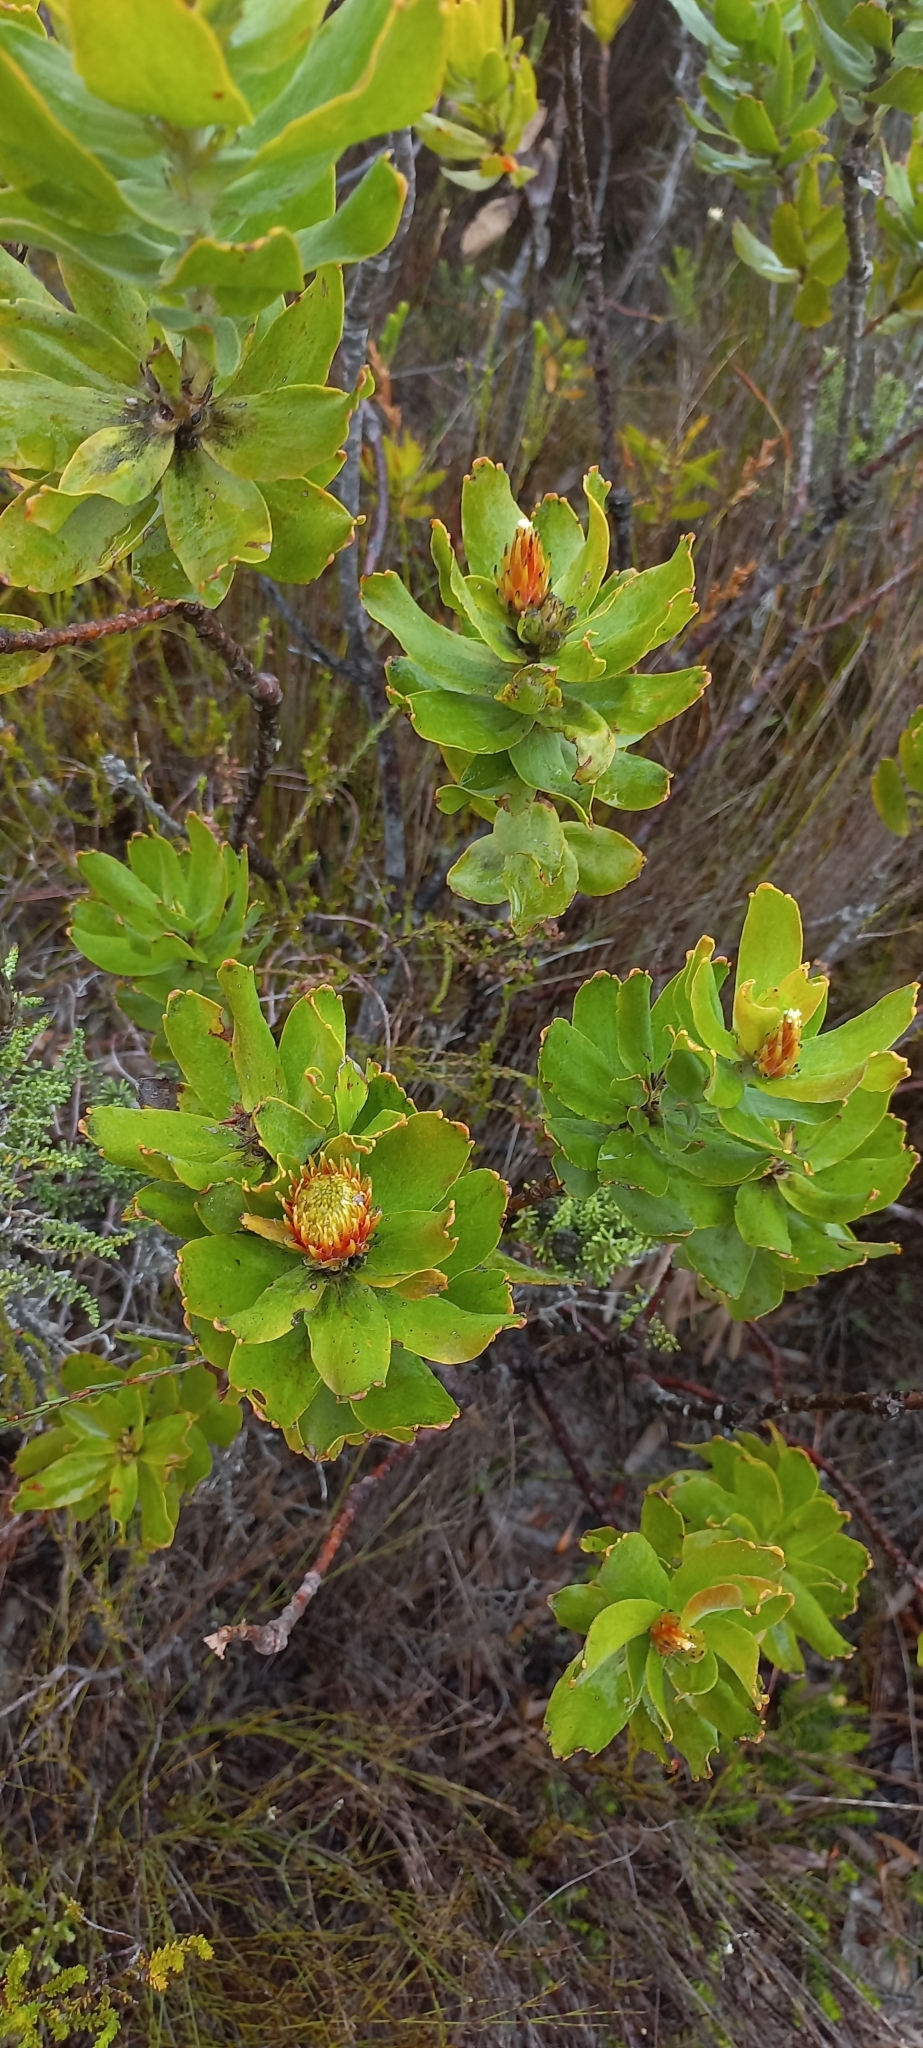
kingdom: Plantae
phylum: Tracheophyta
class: Magnoliopsida
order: Proteales
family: Proteaceae
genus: Leucospermum
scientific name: Leucospermum oleifolium
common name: Matches
